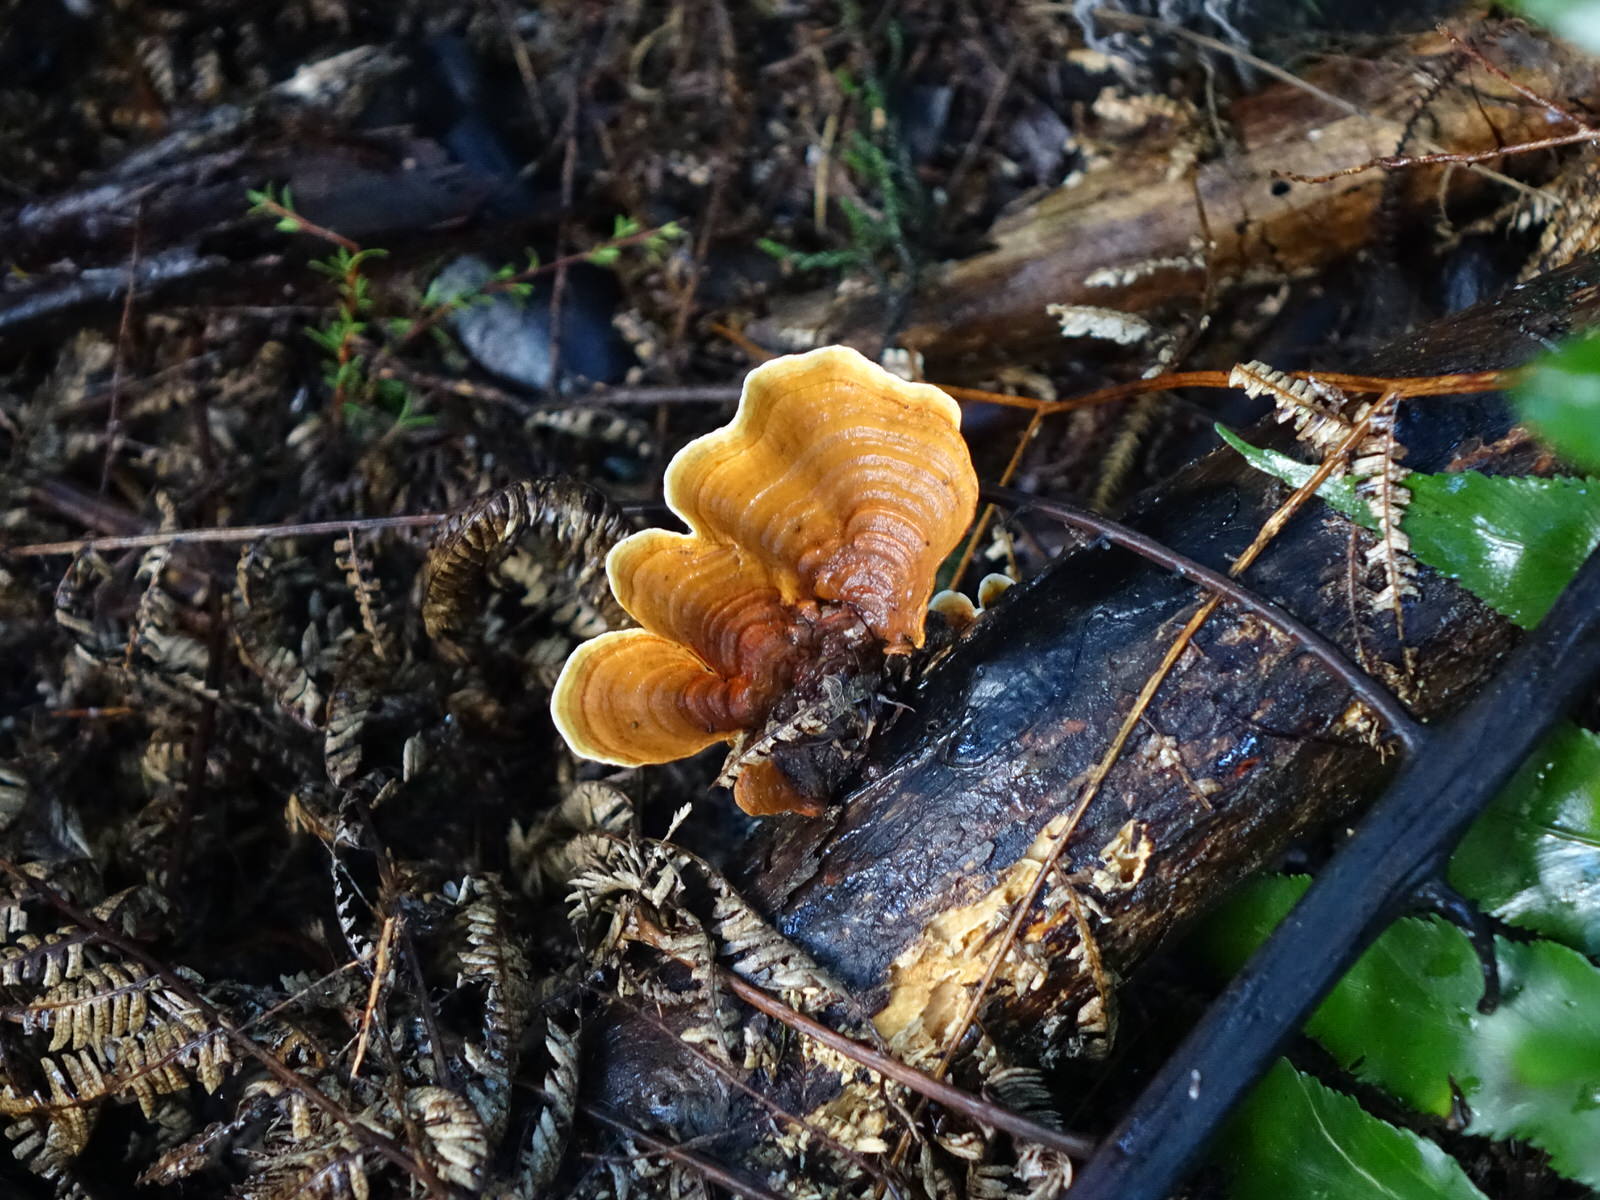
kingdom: Fungi
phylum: Basidiomycota
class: Agaricomycetes
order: Russulales
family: Stereaceae
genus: Stereum
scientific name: Stereum versicolor
